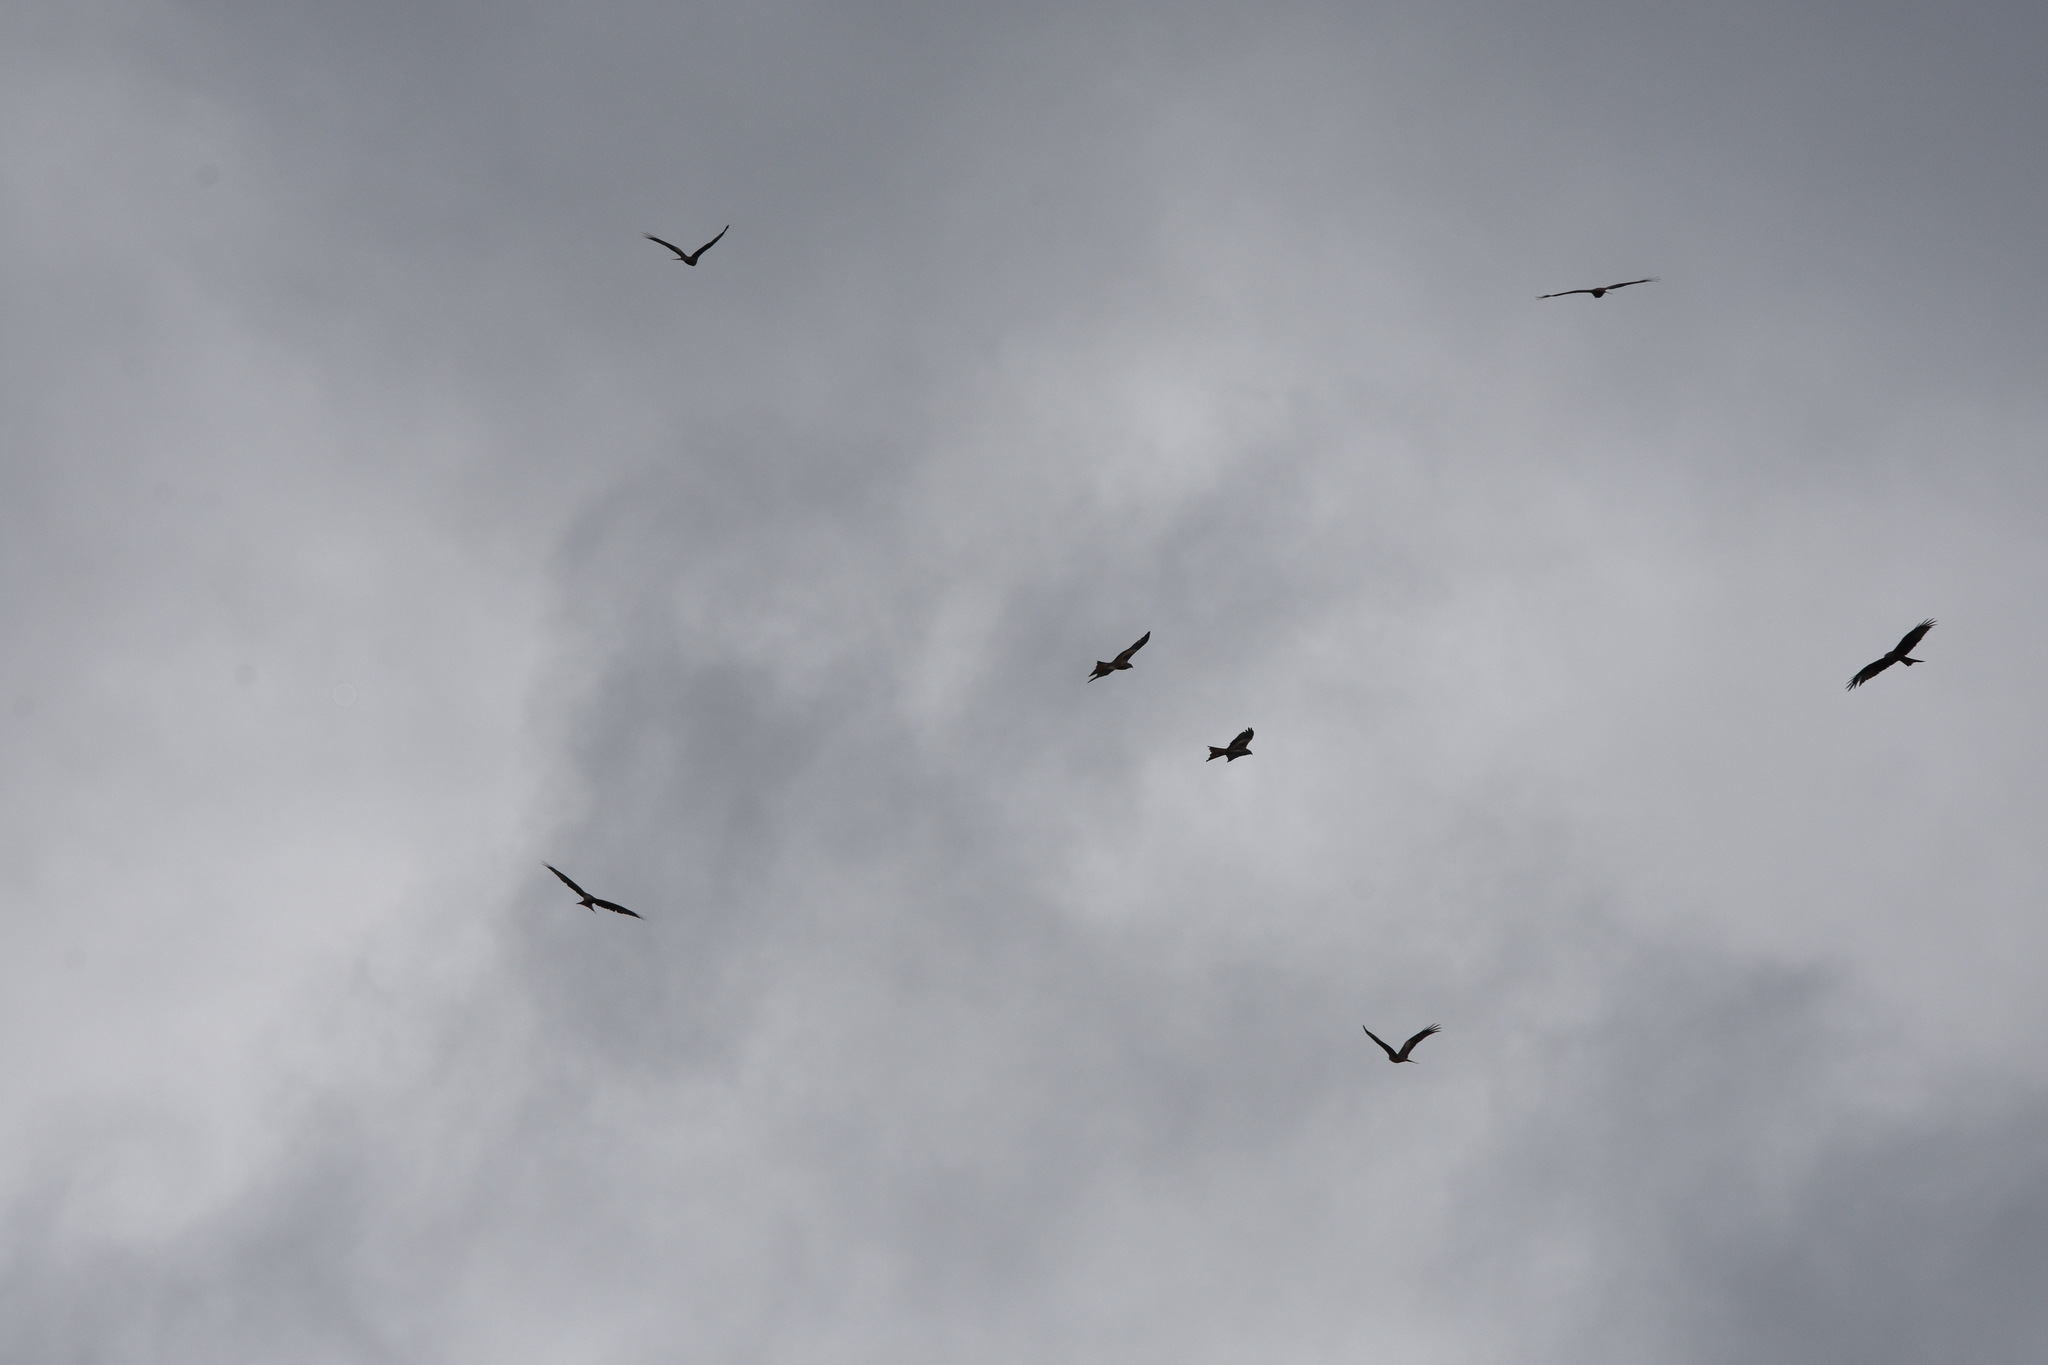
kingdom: Animalia
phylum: Chordata
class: Aves
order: Accipitriformes
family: Accipitridae
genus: Milvus
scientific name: Milvus milvus
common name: Red kite
